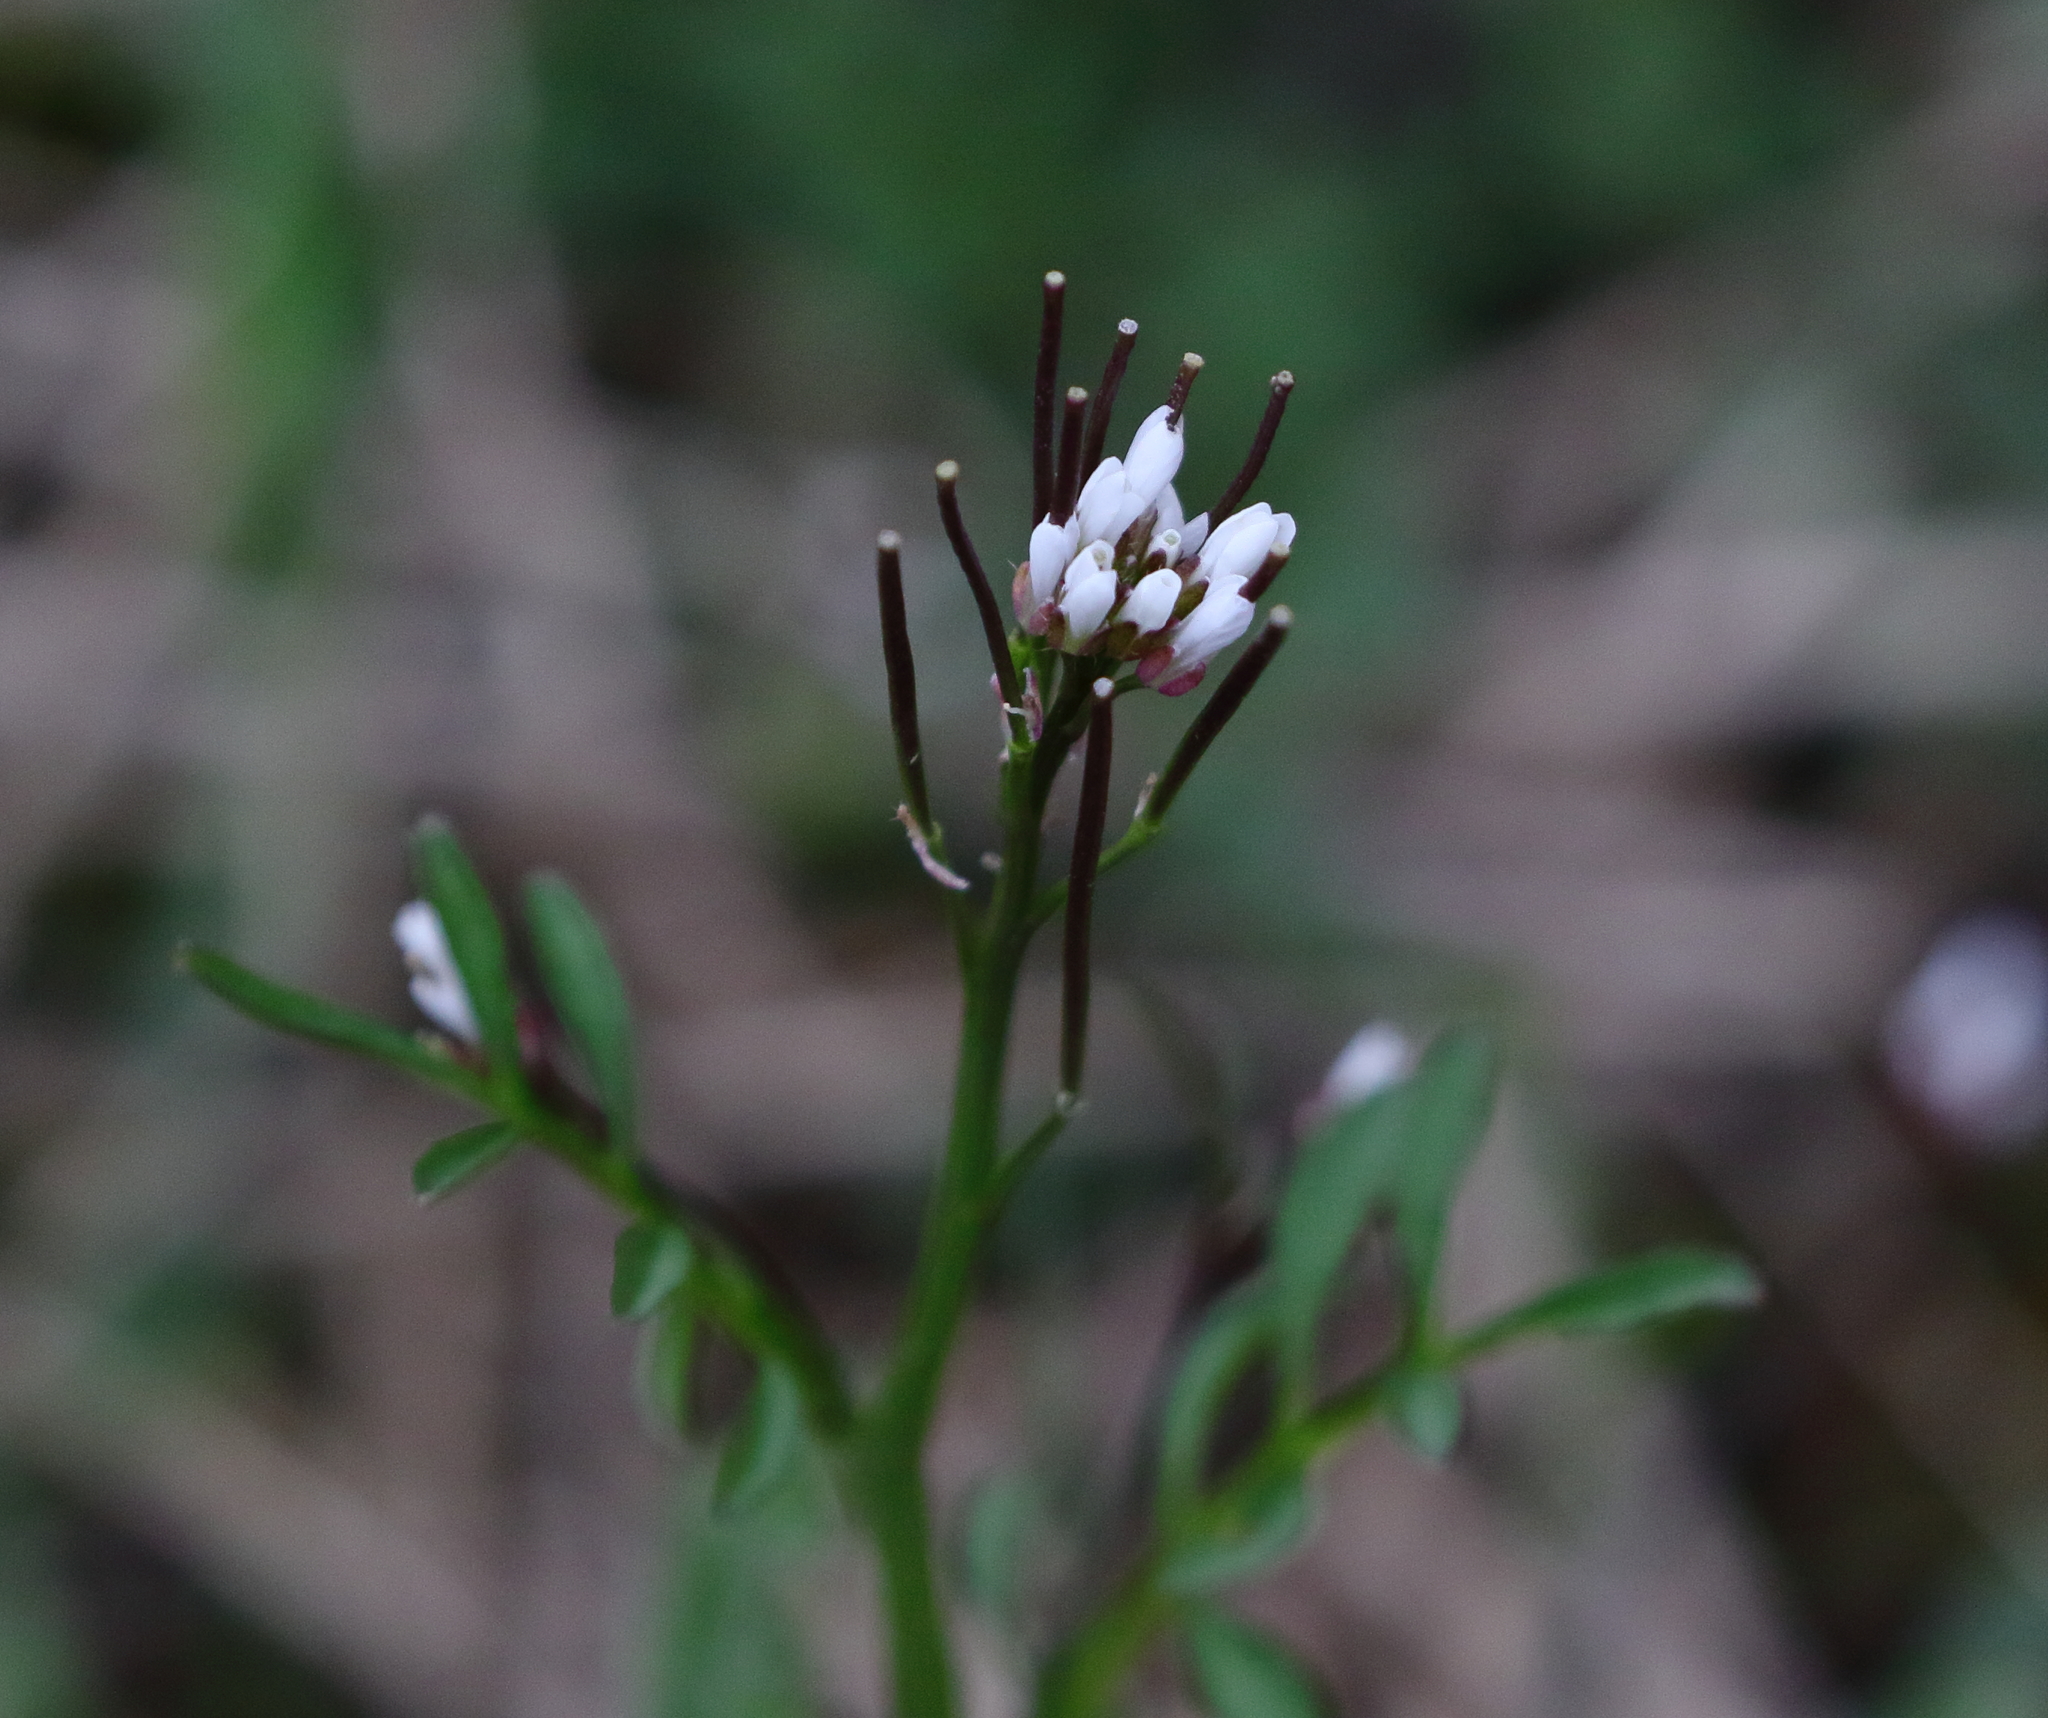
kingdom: Plantae
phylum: Tracheophyta
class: Magnoliopsida
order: Brassicales
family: Brassicaceae
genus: Cardamine
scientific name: Cardamine hirsuta
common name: Hairy bittercress
